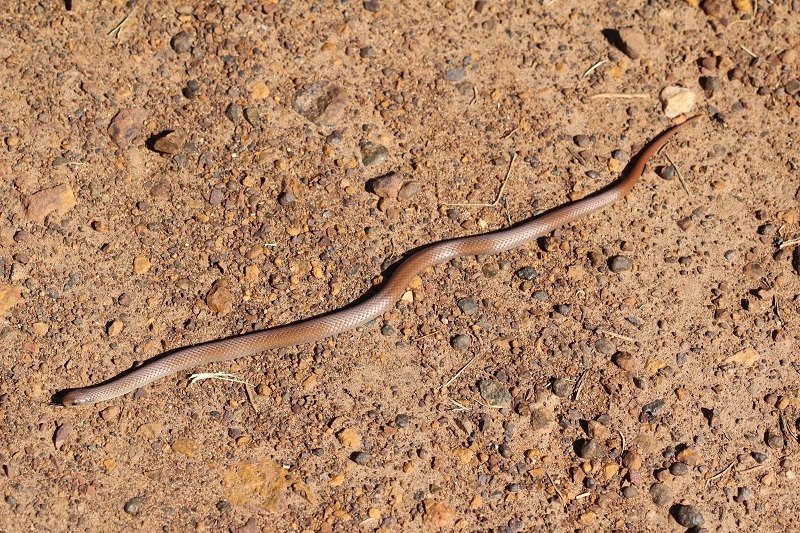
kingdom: Animalia
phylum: Chordata
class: Squamata
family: Pseudoxyrhophiidae
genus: Duberria
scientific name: Duberria lutrix
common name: Common slug eater
